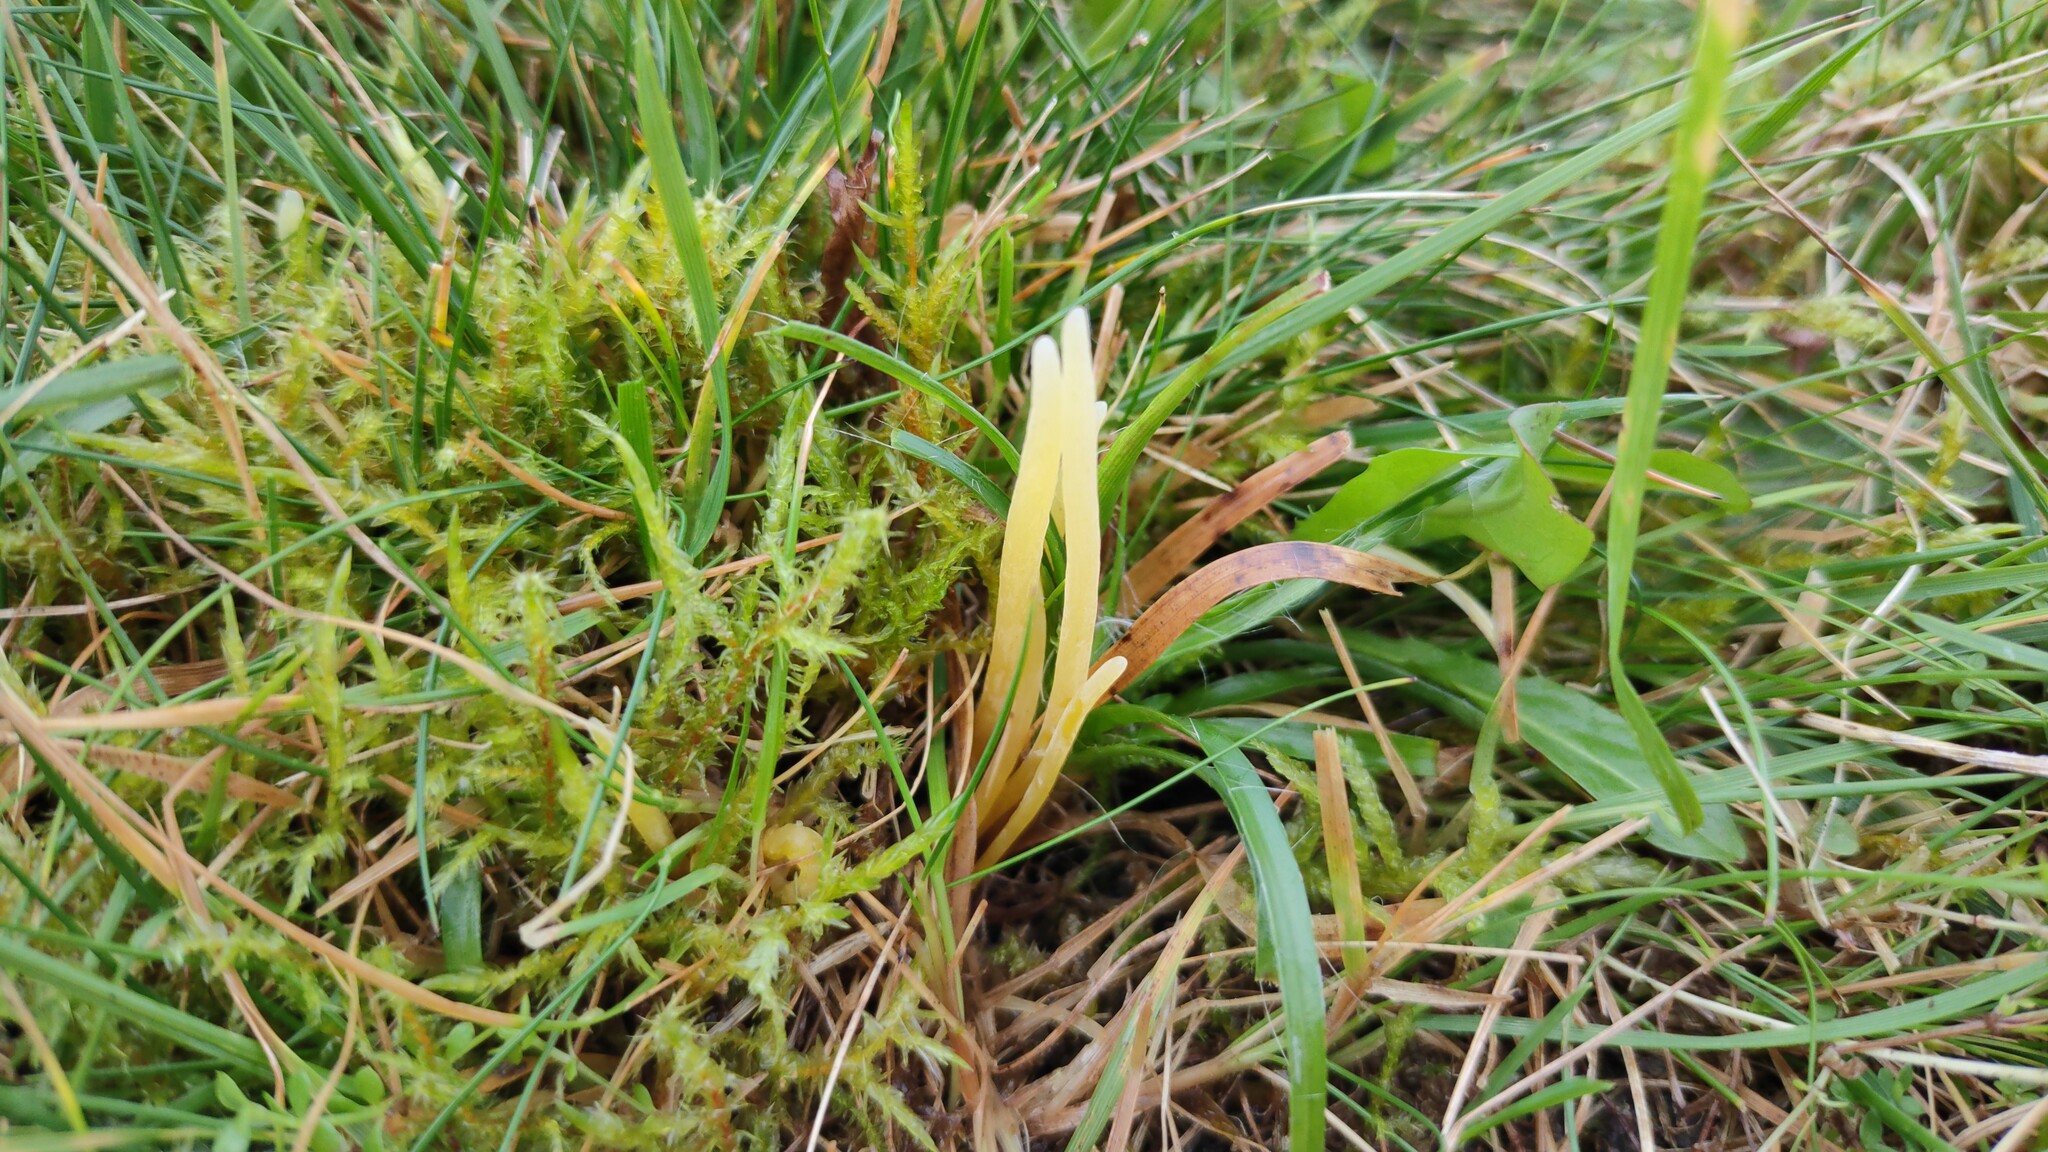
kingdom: Fungi
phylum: Basidiomycota
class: Agaricomycetes
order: Agaricales
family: Clavariaceae
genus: Clavaria
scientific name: Clavaria straminea
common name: Straw club
